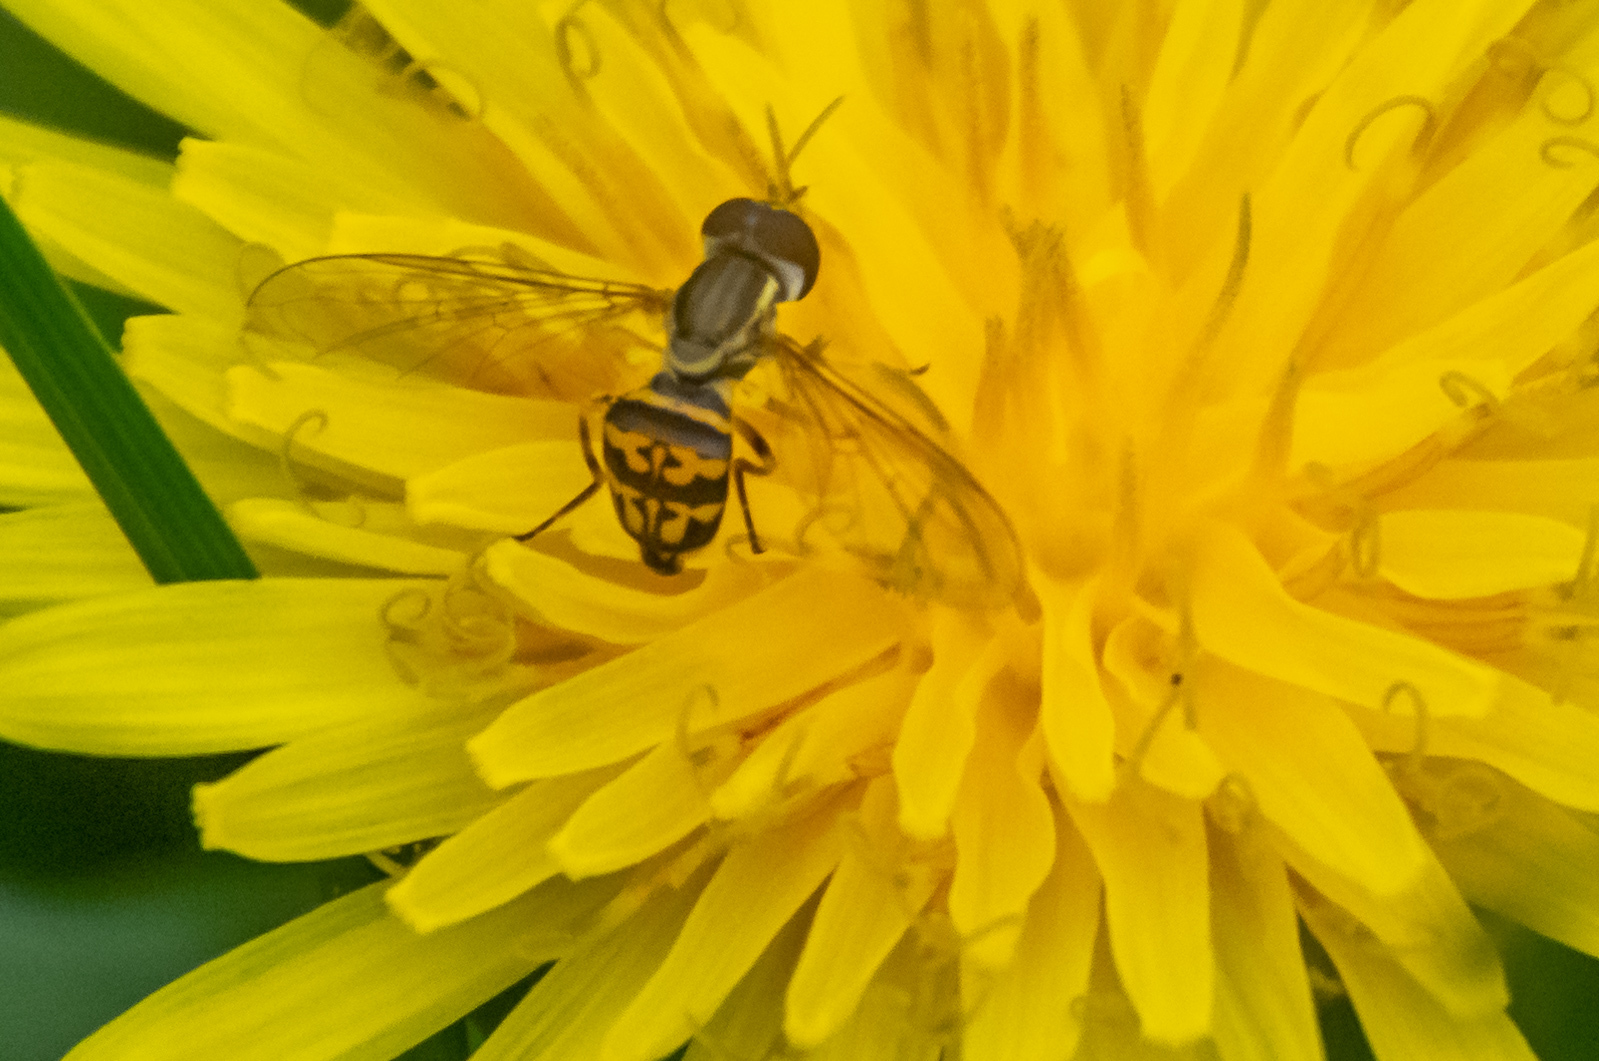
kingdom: Animalia
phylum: Arthropoda
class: Insecta
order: Diptera
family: Syrphidae
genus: Toxomerus
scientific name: Toxomerus geminatus
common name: Eastern calligrapher
